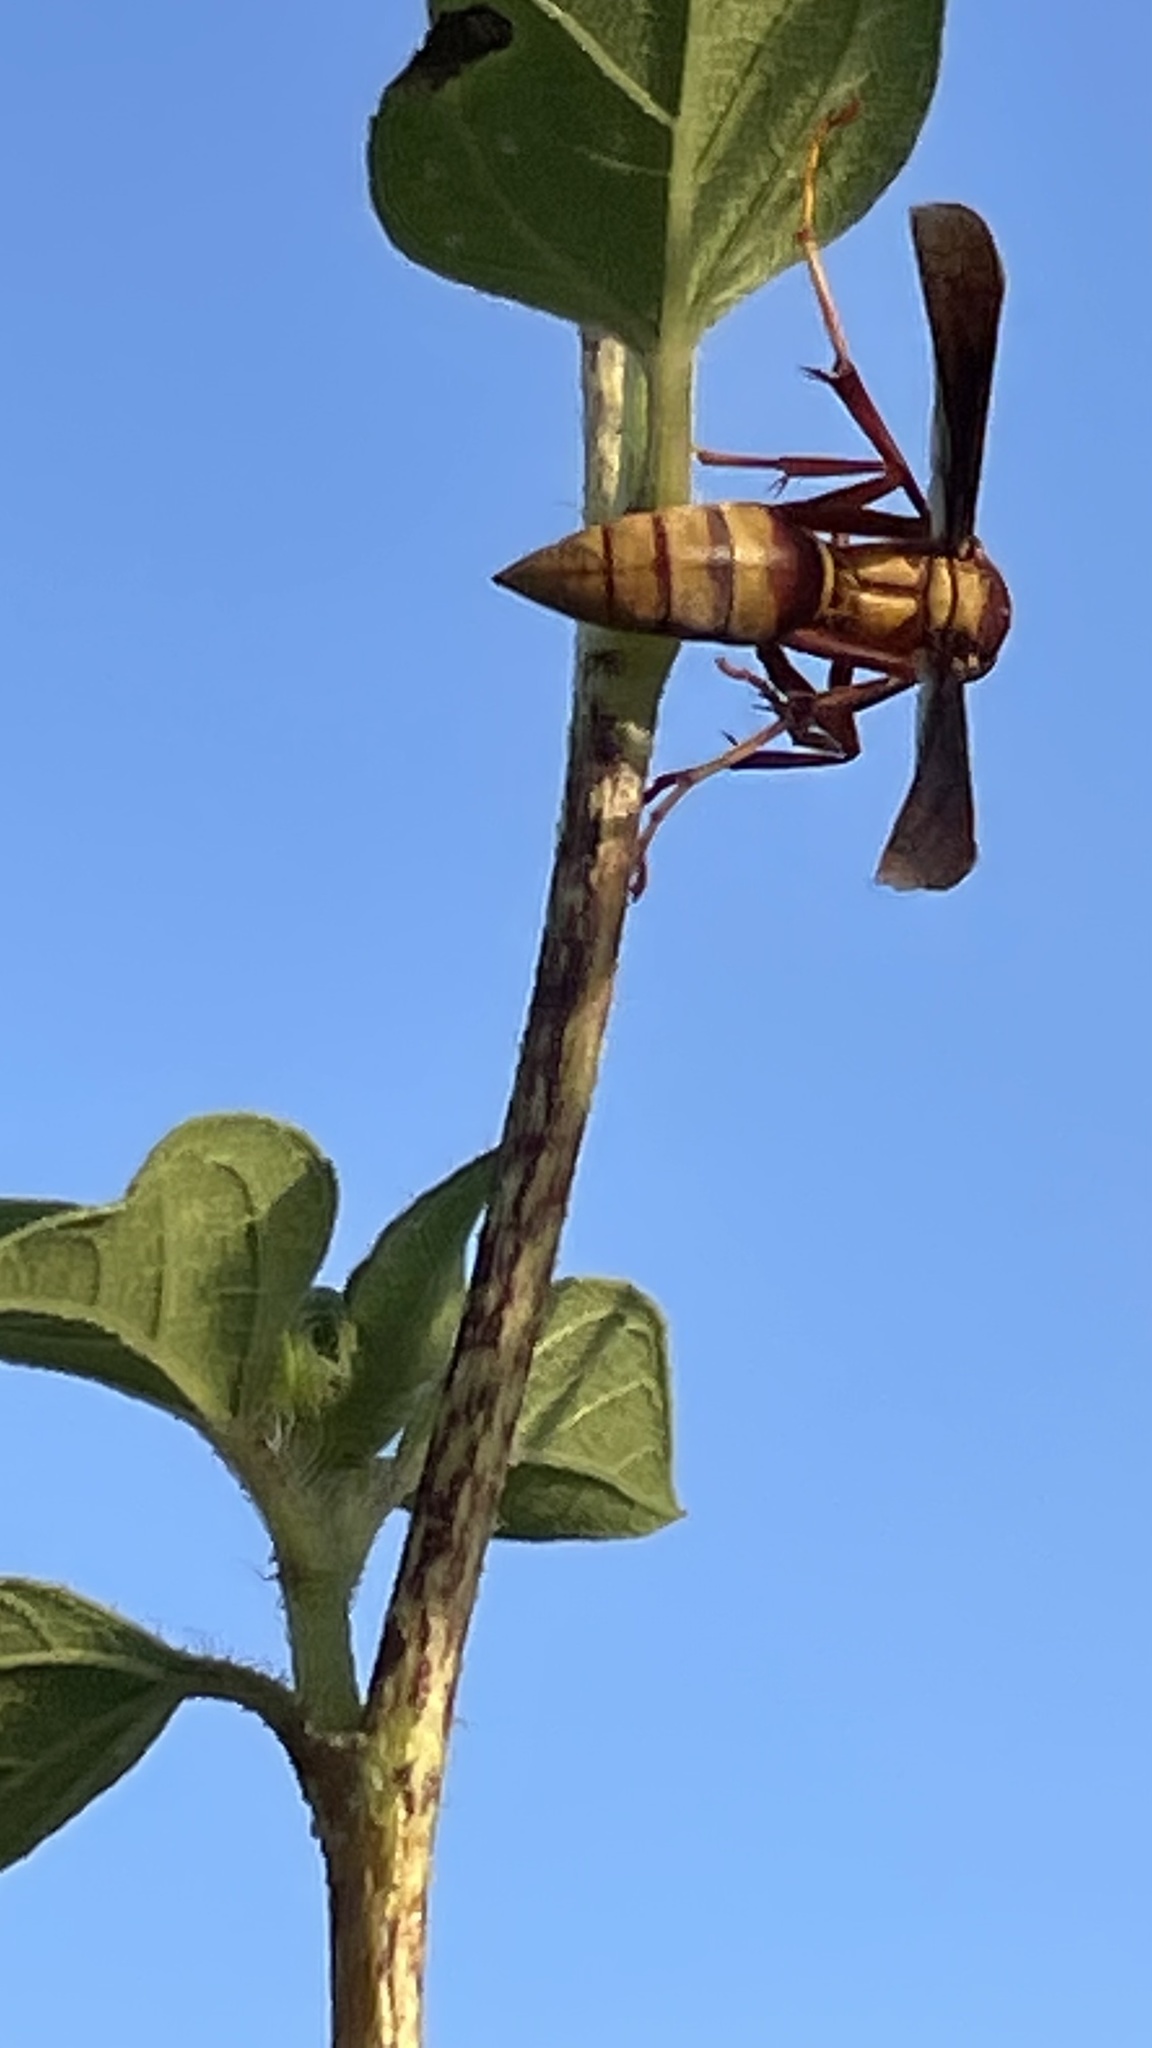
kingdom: Animalia
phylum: Arthropoda
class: Insecta
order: Hymenoptera
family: Eumenidae
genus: Polistes
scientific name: Polistes major
